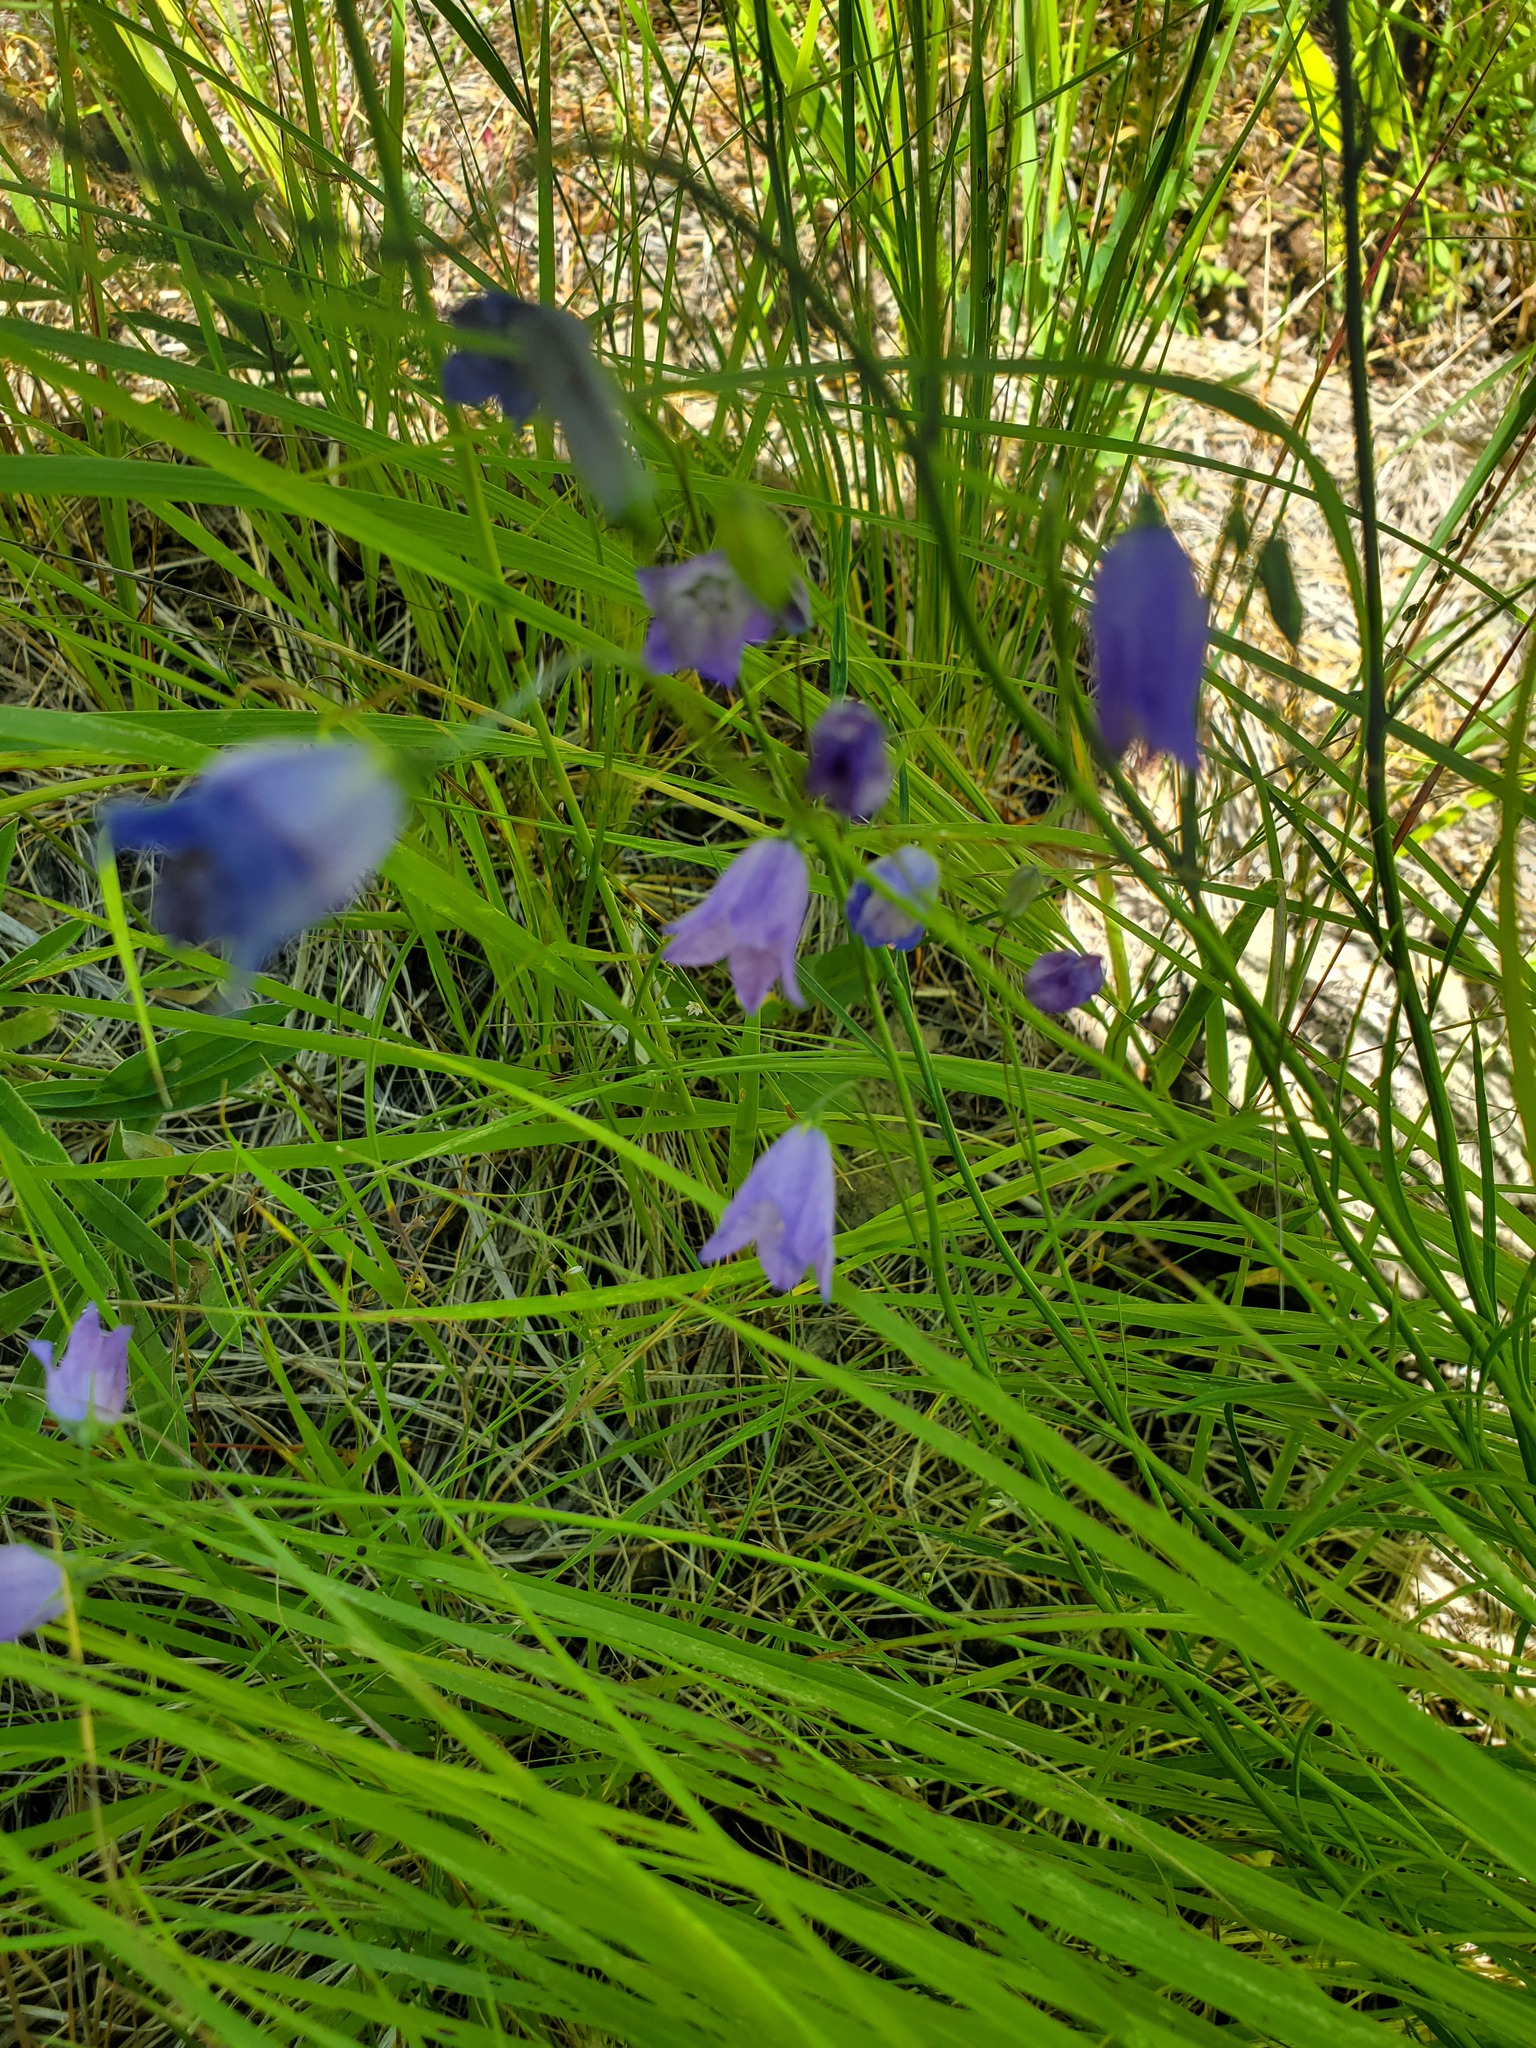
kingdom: Plantae
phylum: Tracheophyta
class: Magnoliopsida
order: Asterales
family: Campanulaceae
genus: Campanula
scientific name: Campanula alaskana
